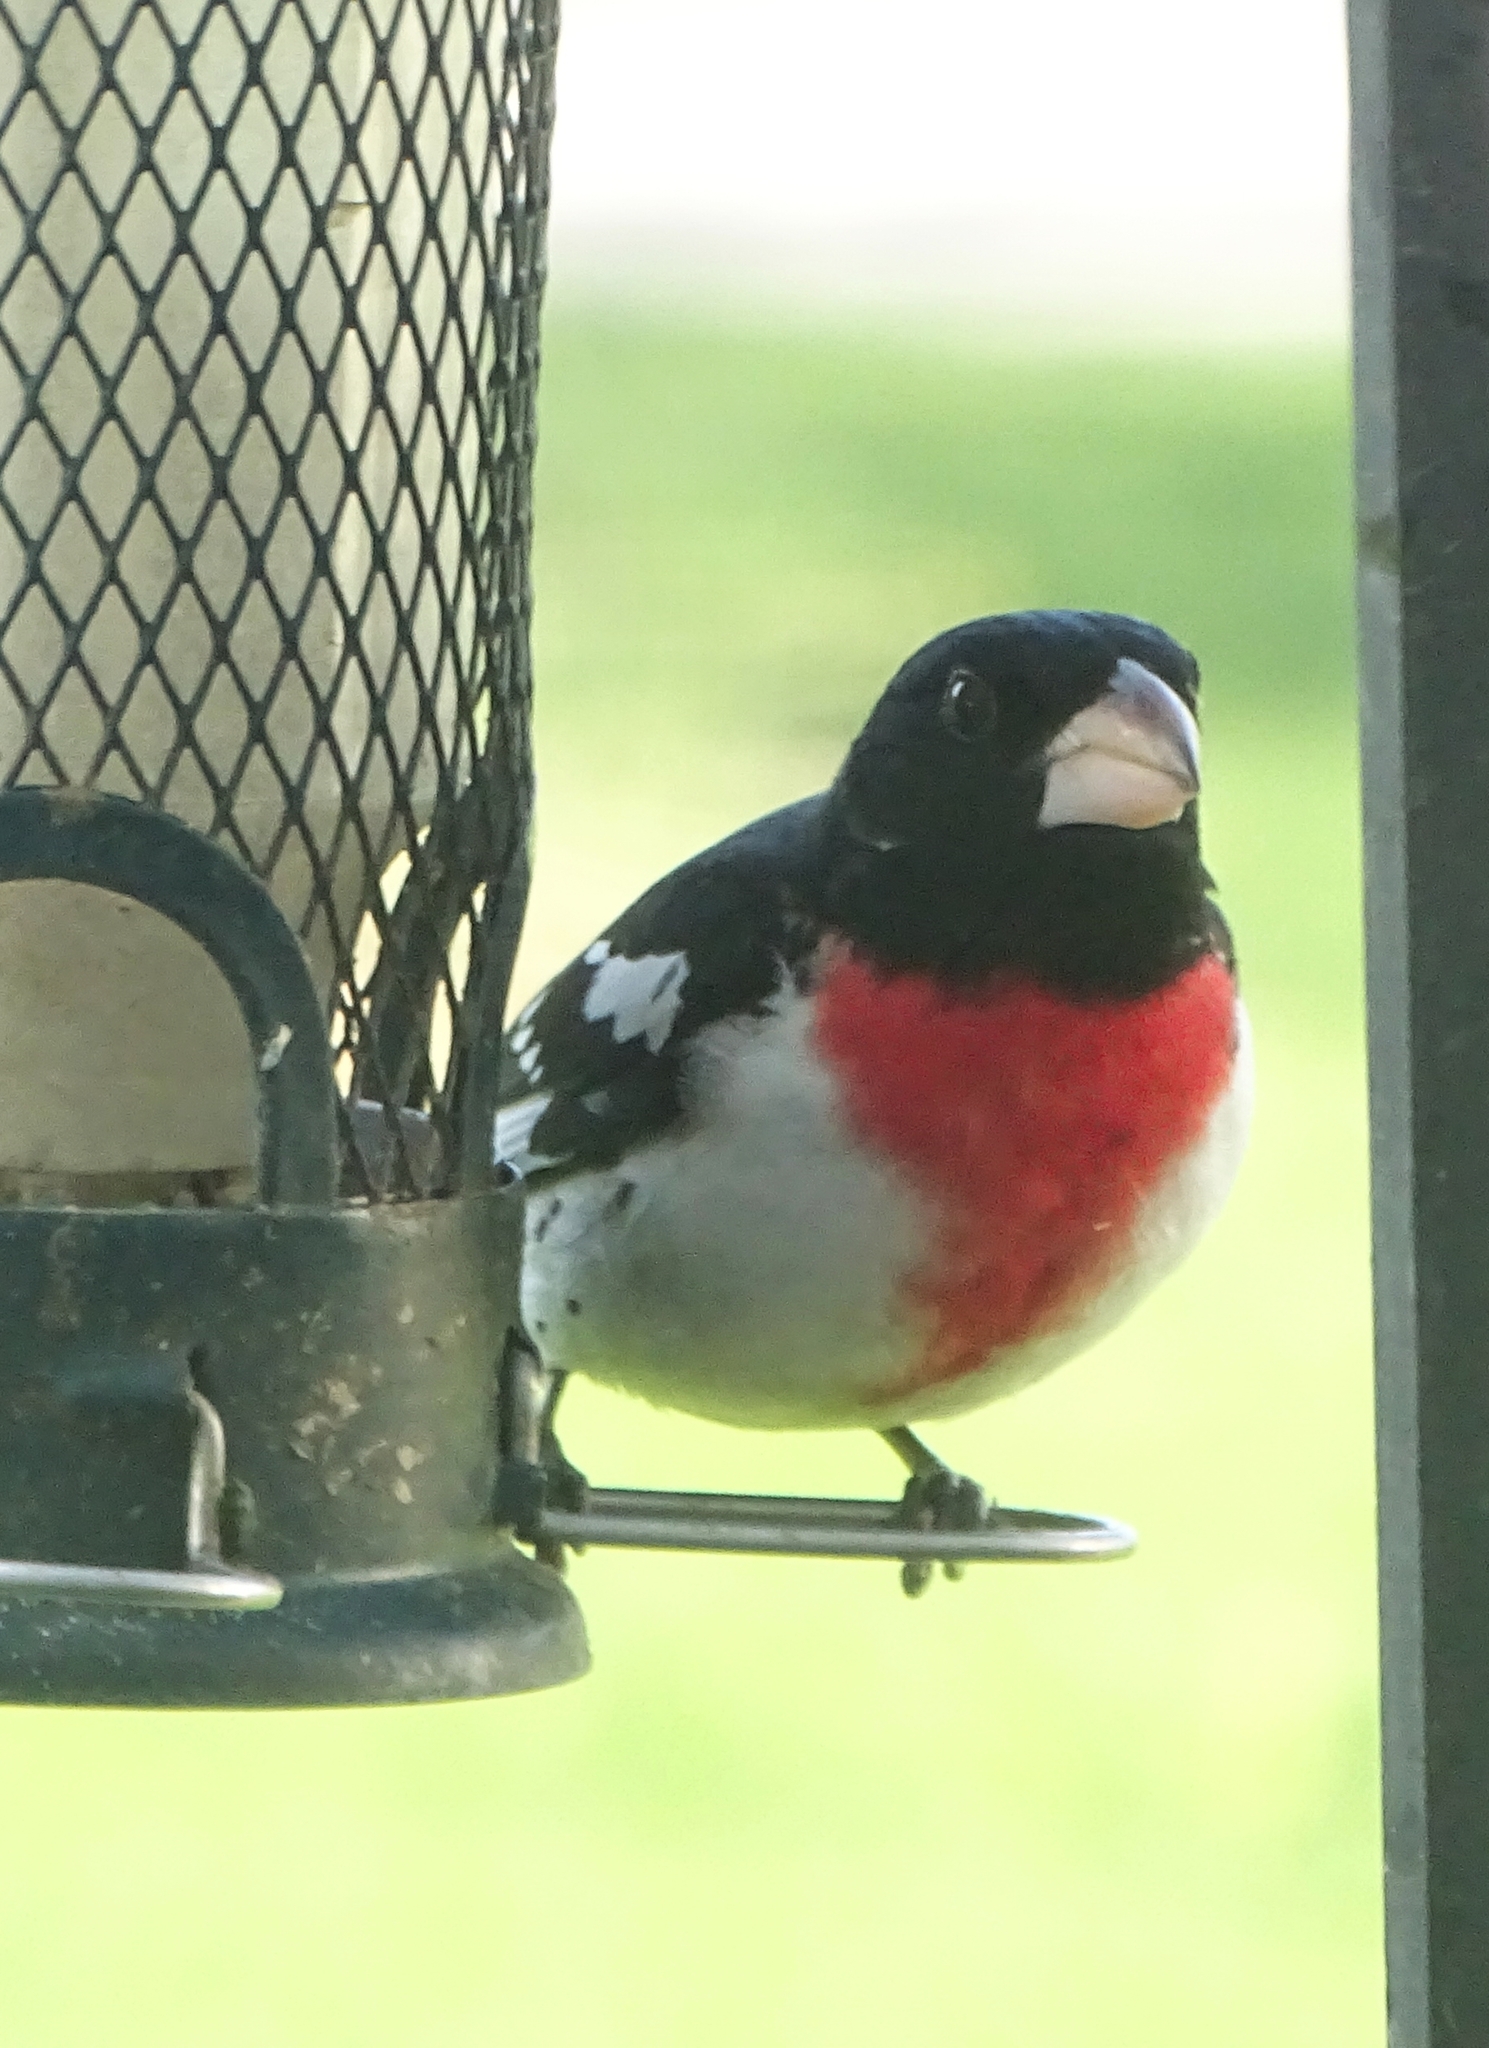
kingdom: Animalia
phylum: Chordata
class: Aves
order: Passeriformes
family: Cardinalidae
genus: Pheucticus
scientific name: Pheucticus ludovicianus
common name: Rose-breasted grosbeak
